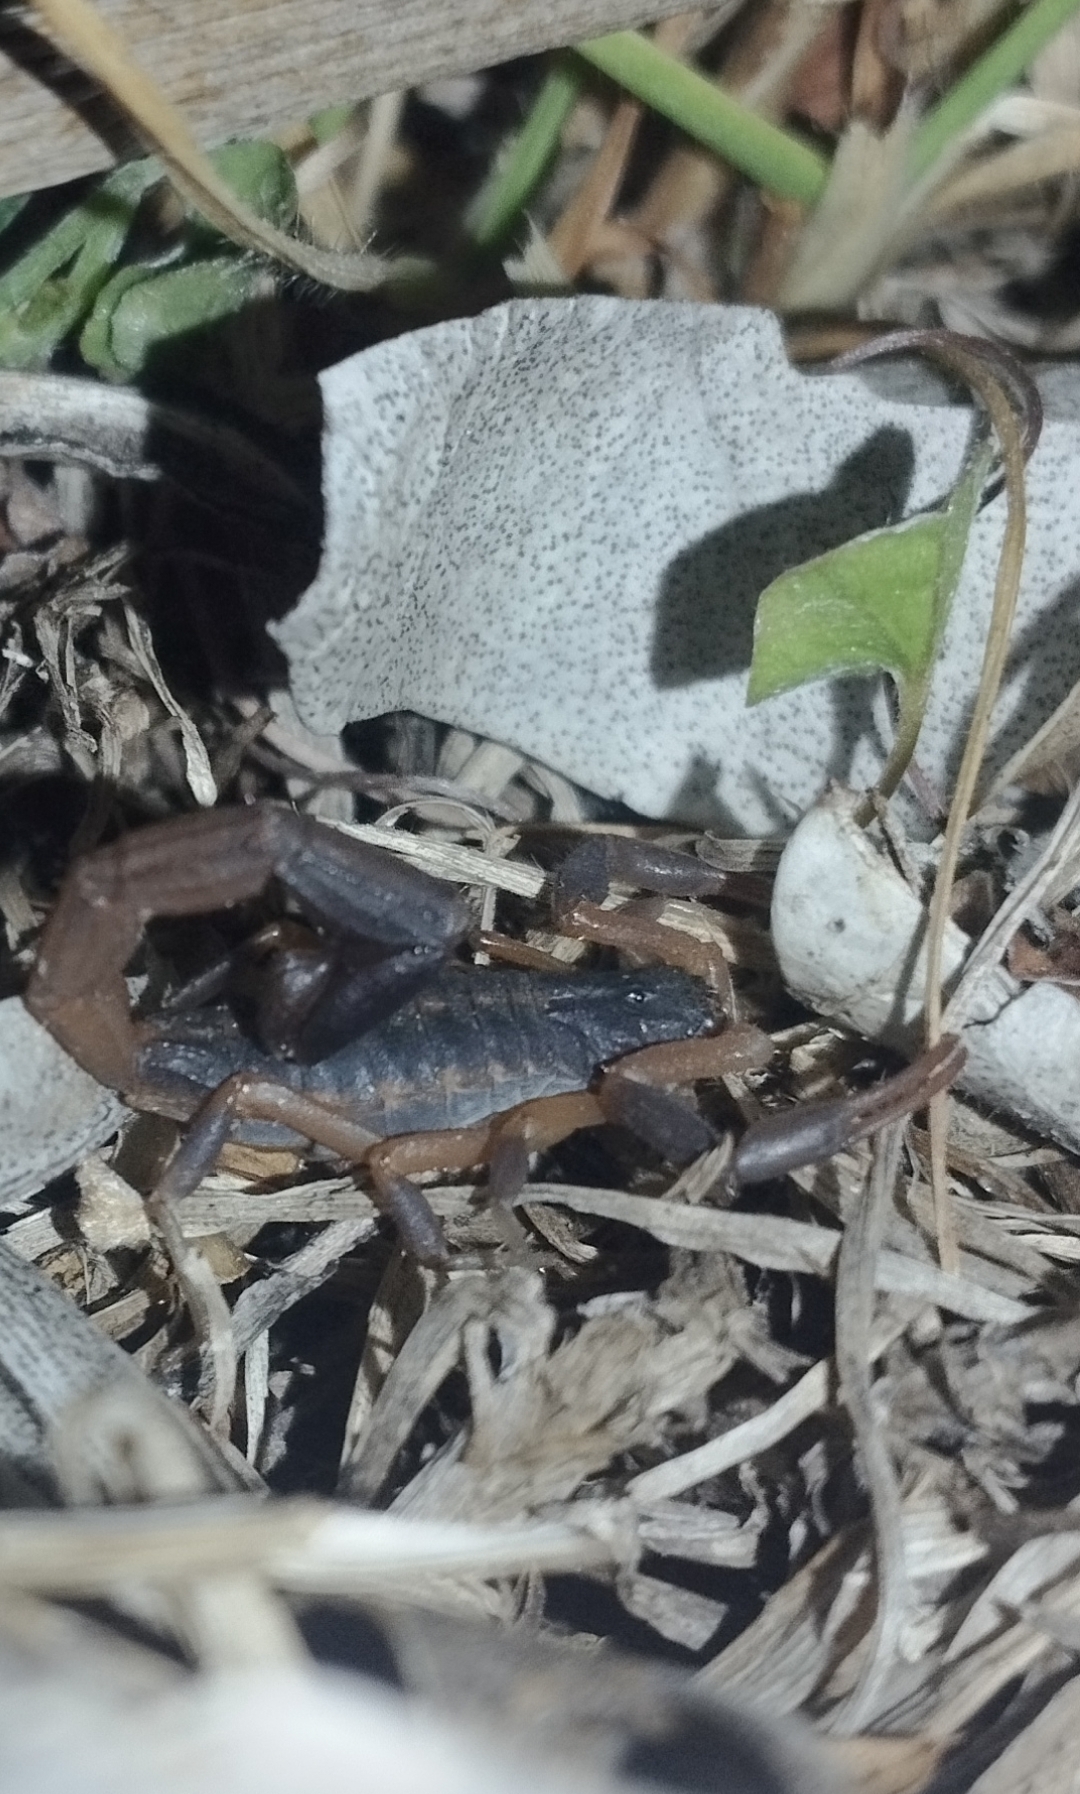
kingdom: Animalia
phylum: Arthropoda
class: Arachnida
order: Scorpiones
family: Buthidae
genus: Uroplectes
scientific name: Uroplectes triangulifer
